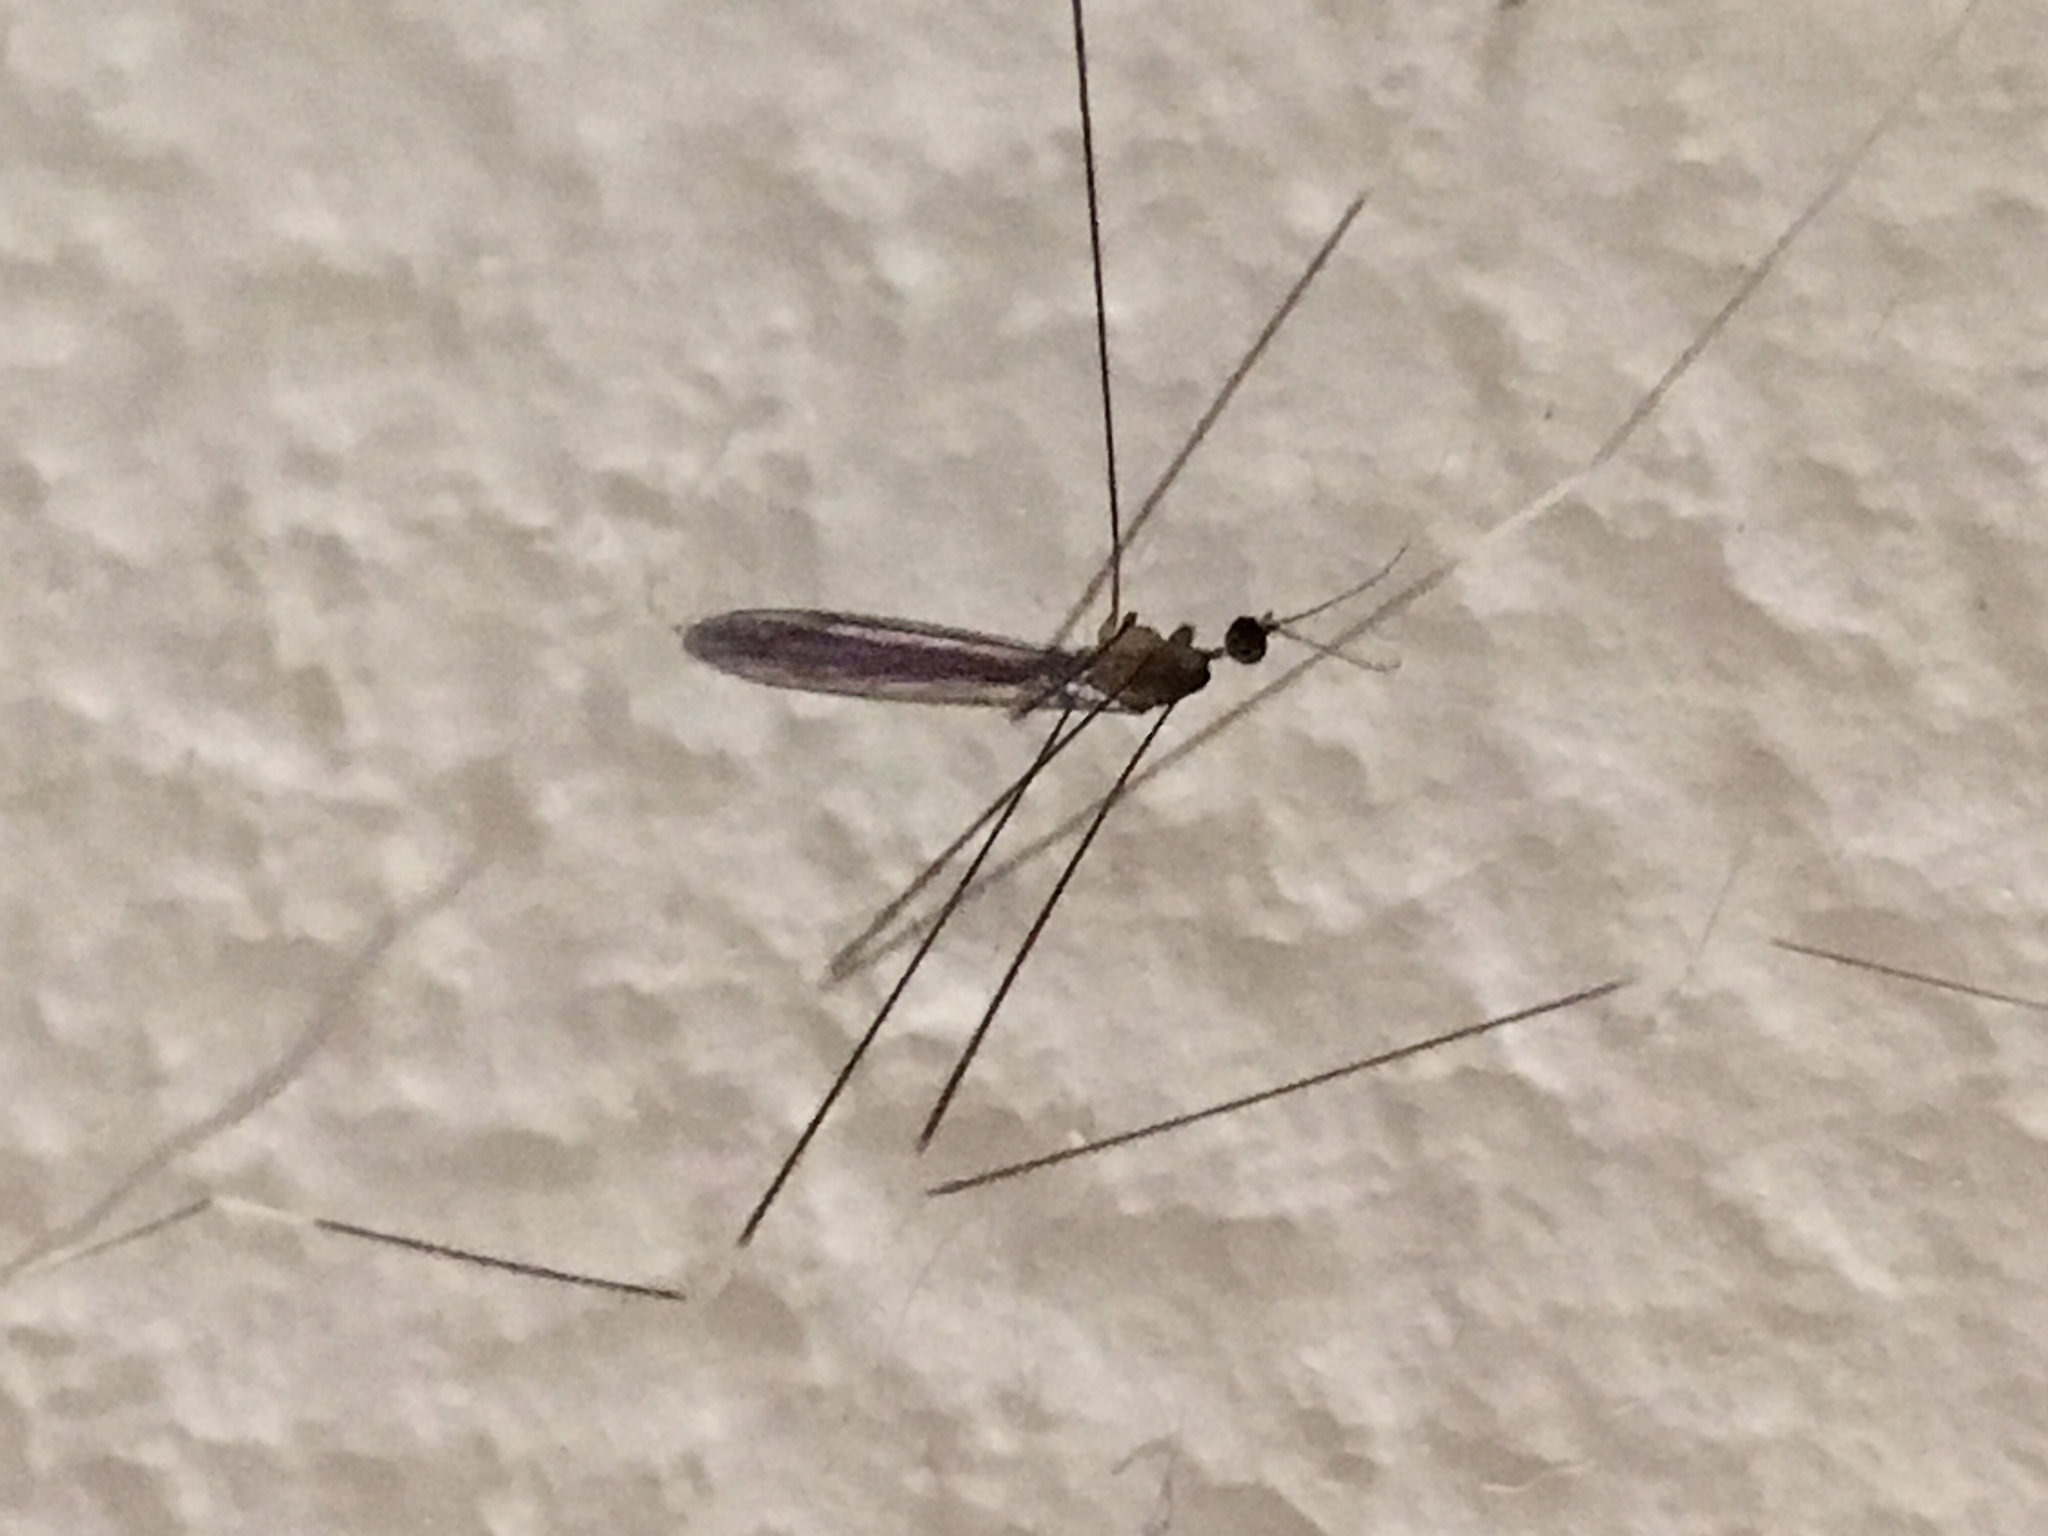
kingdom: Animalia
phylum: Arthropoda
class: Insecta
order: Diptera
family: Limoniidae
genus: Trentepohlia
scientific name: Trentepohlia australasiae
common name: Crane fly
